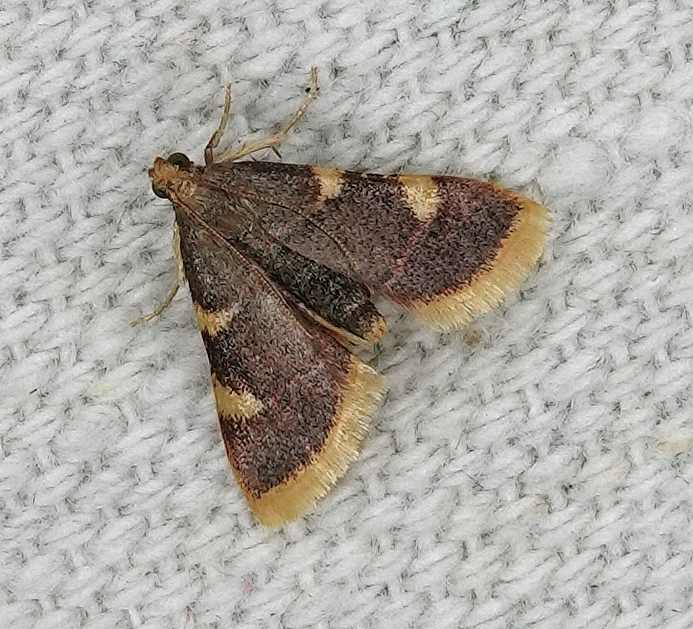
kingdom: Animalia
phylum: Arthropoda
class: Insecta
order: Lepidoptera
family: Pyralidae
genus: Hypsopygia
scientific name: Hypsopygia costalis
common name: Gold triangle
